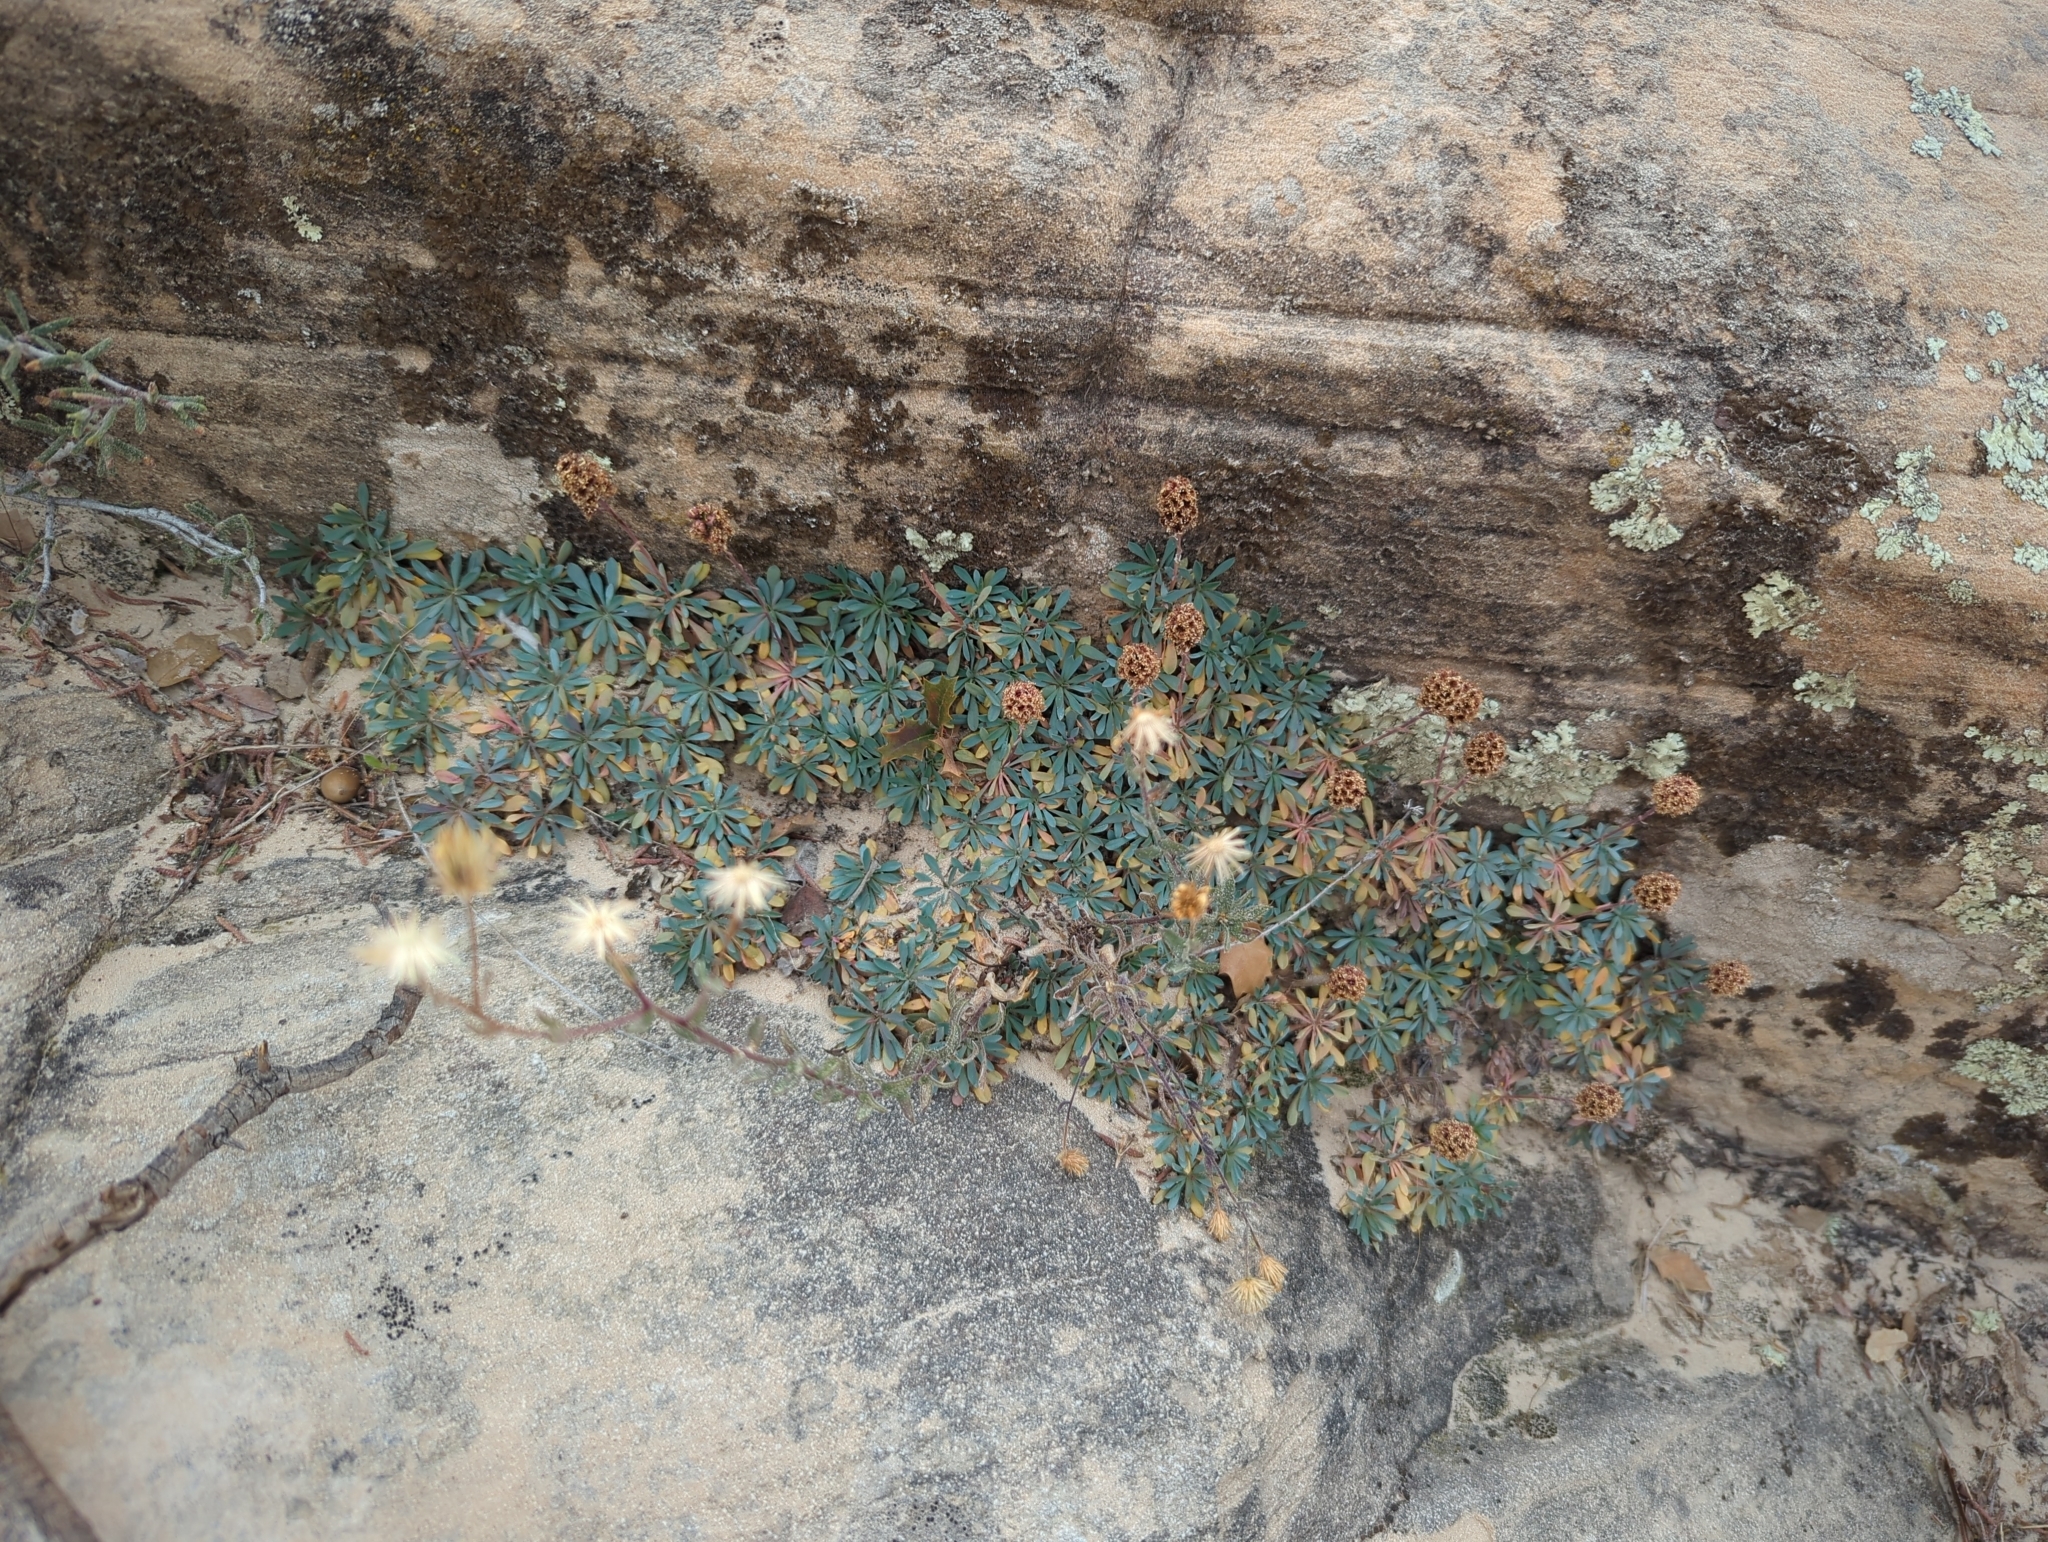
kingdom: Plantae
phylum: Tracheophyta
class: Magnoliopsida
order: Rosales
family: Rosaceae
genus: Petrophytum
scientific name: Petrophytum caespitosum
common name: Mat rockspirea
